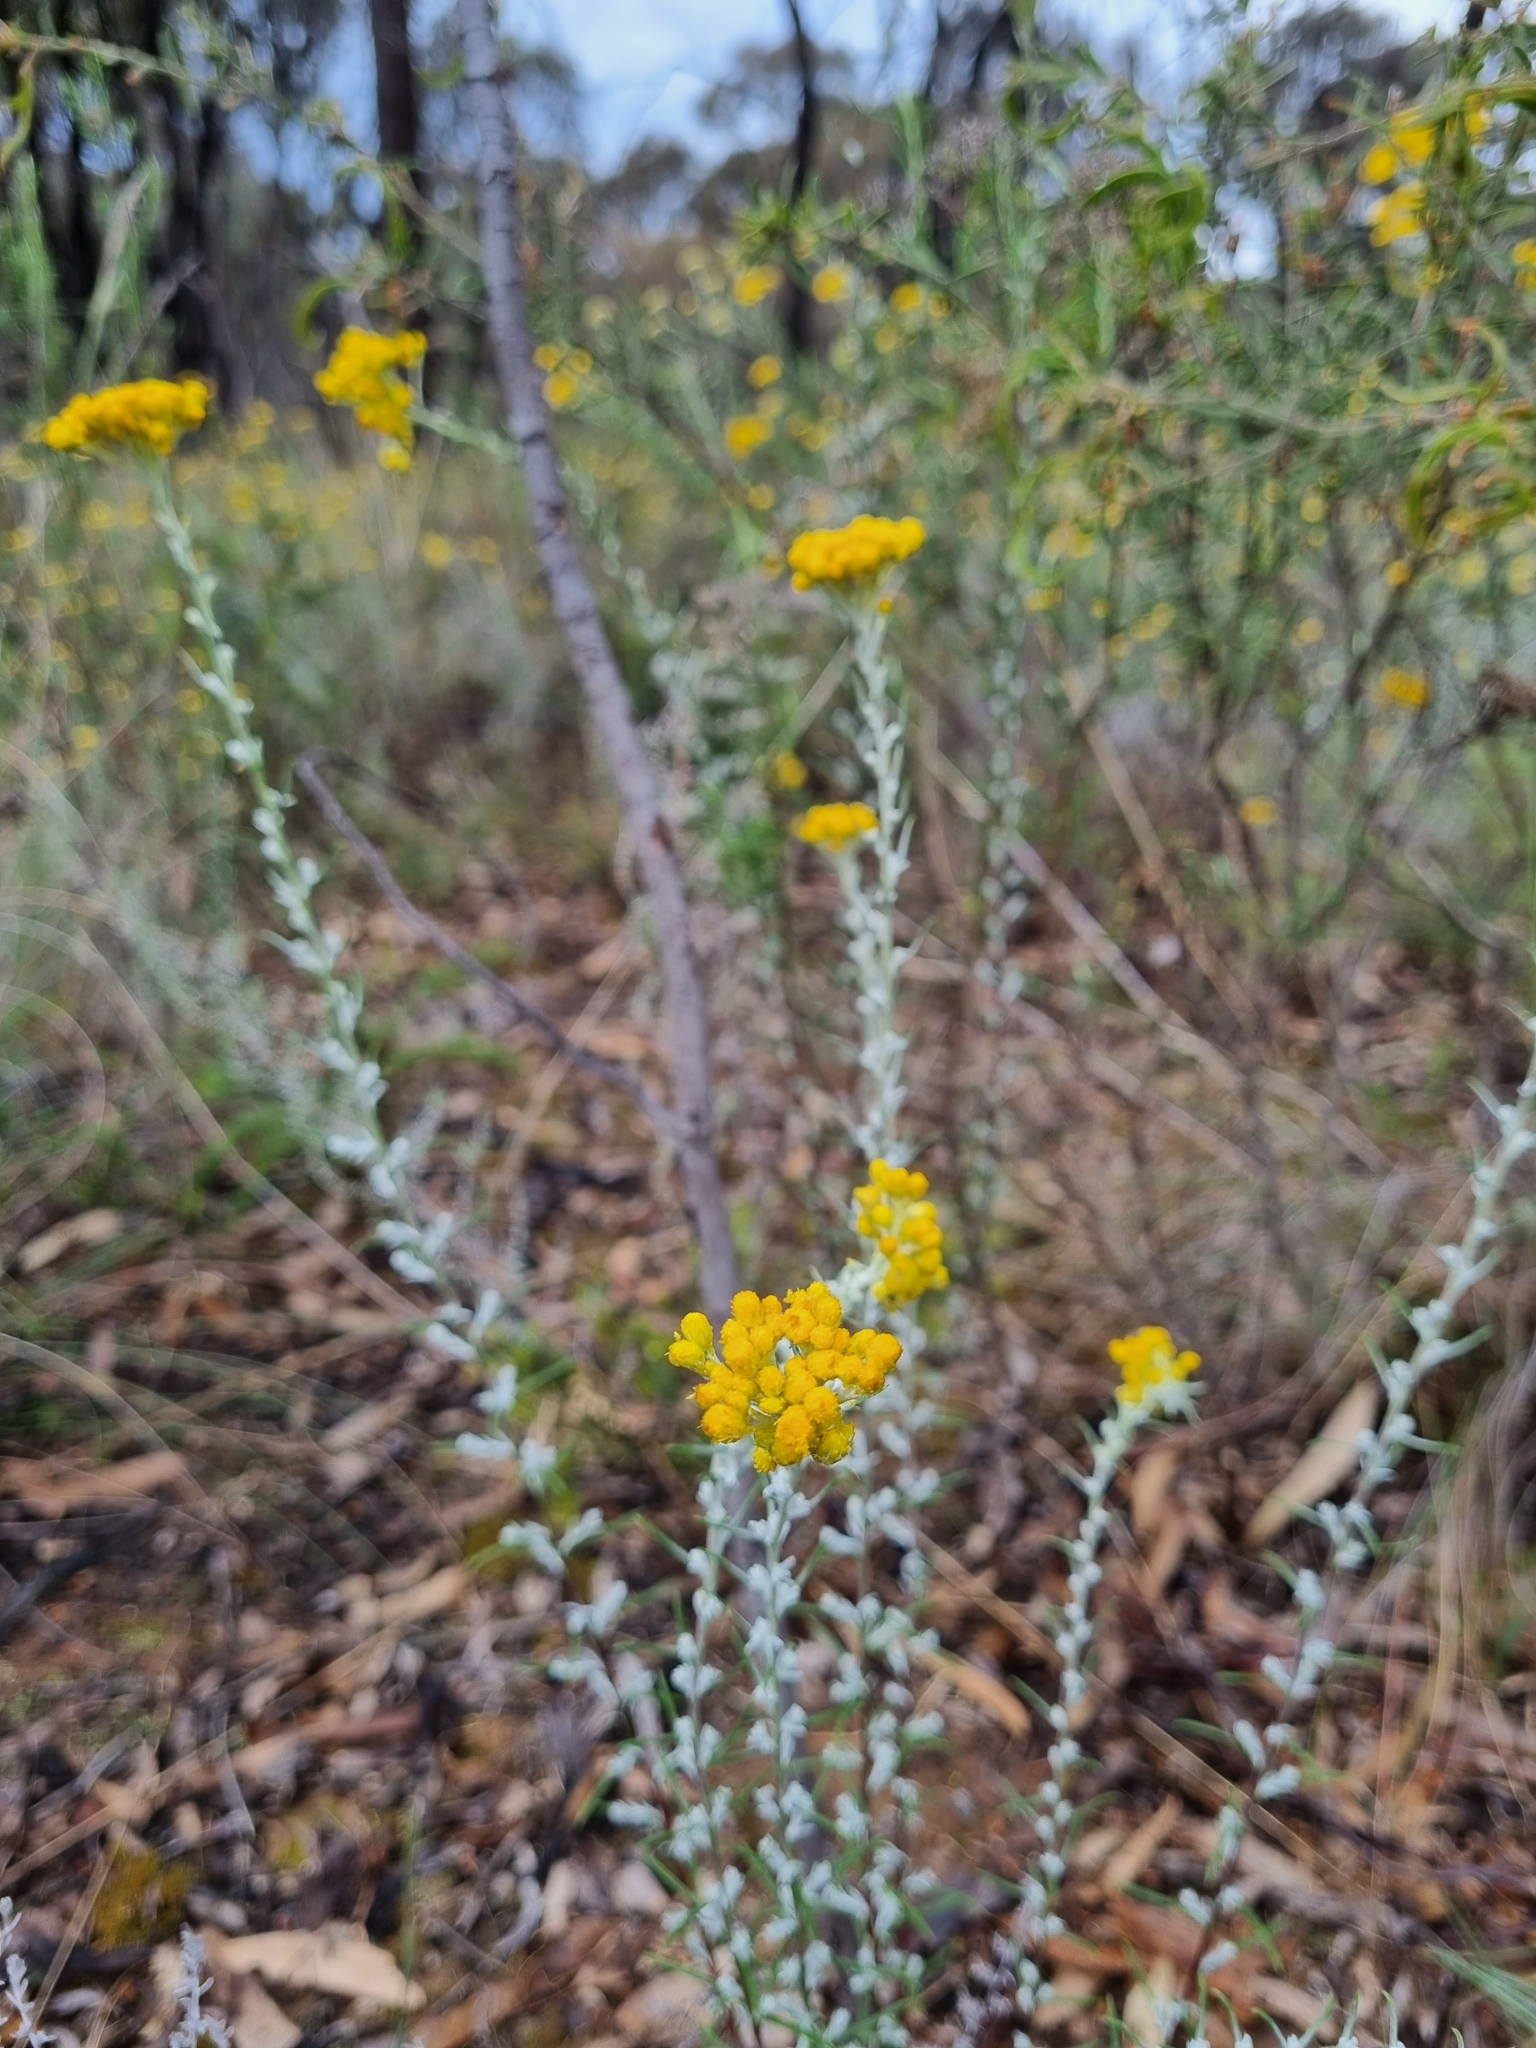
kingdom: Plantae
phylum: Tracheophyta
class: Magnoliopsida
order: Asterales
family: Asteraceae
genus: Chrysocephalum
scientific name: Chrysocephalum semipapposum
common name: Clustered everlasting
